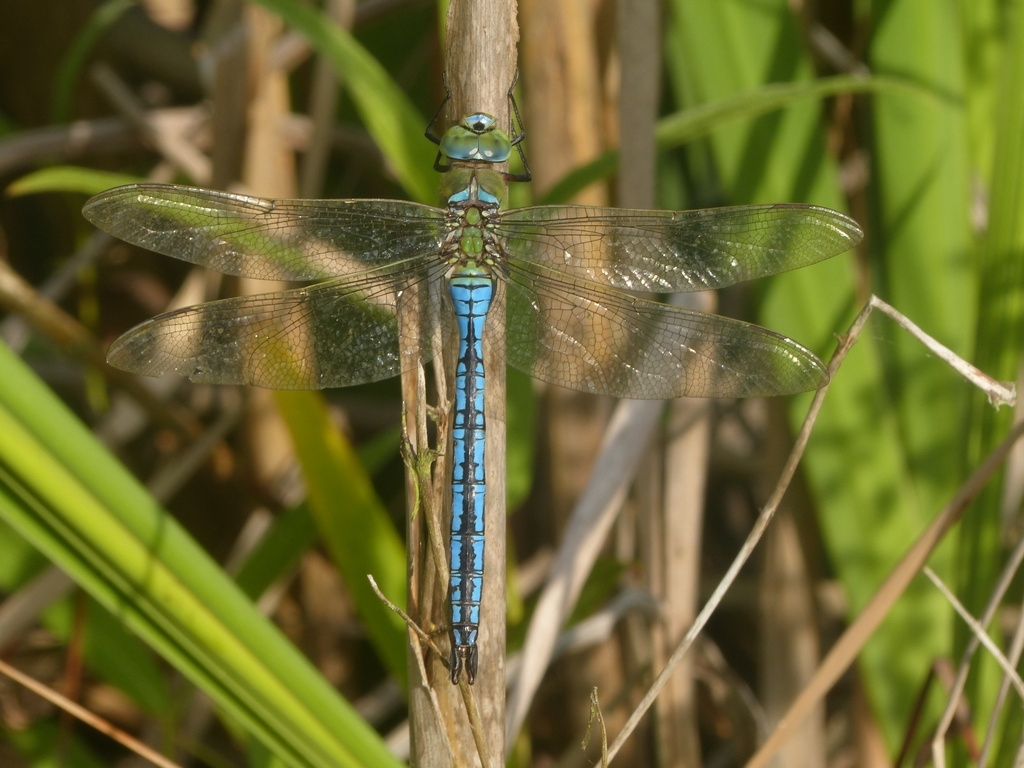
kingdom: Animalia
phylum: Arthropoda
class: Insecta
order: Odonata
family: Aeshnidae
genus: Anax
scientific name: Anax imperator
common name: Emperor dragonfly
